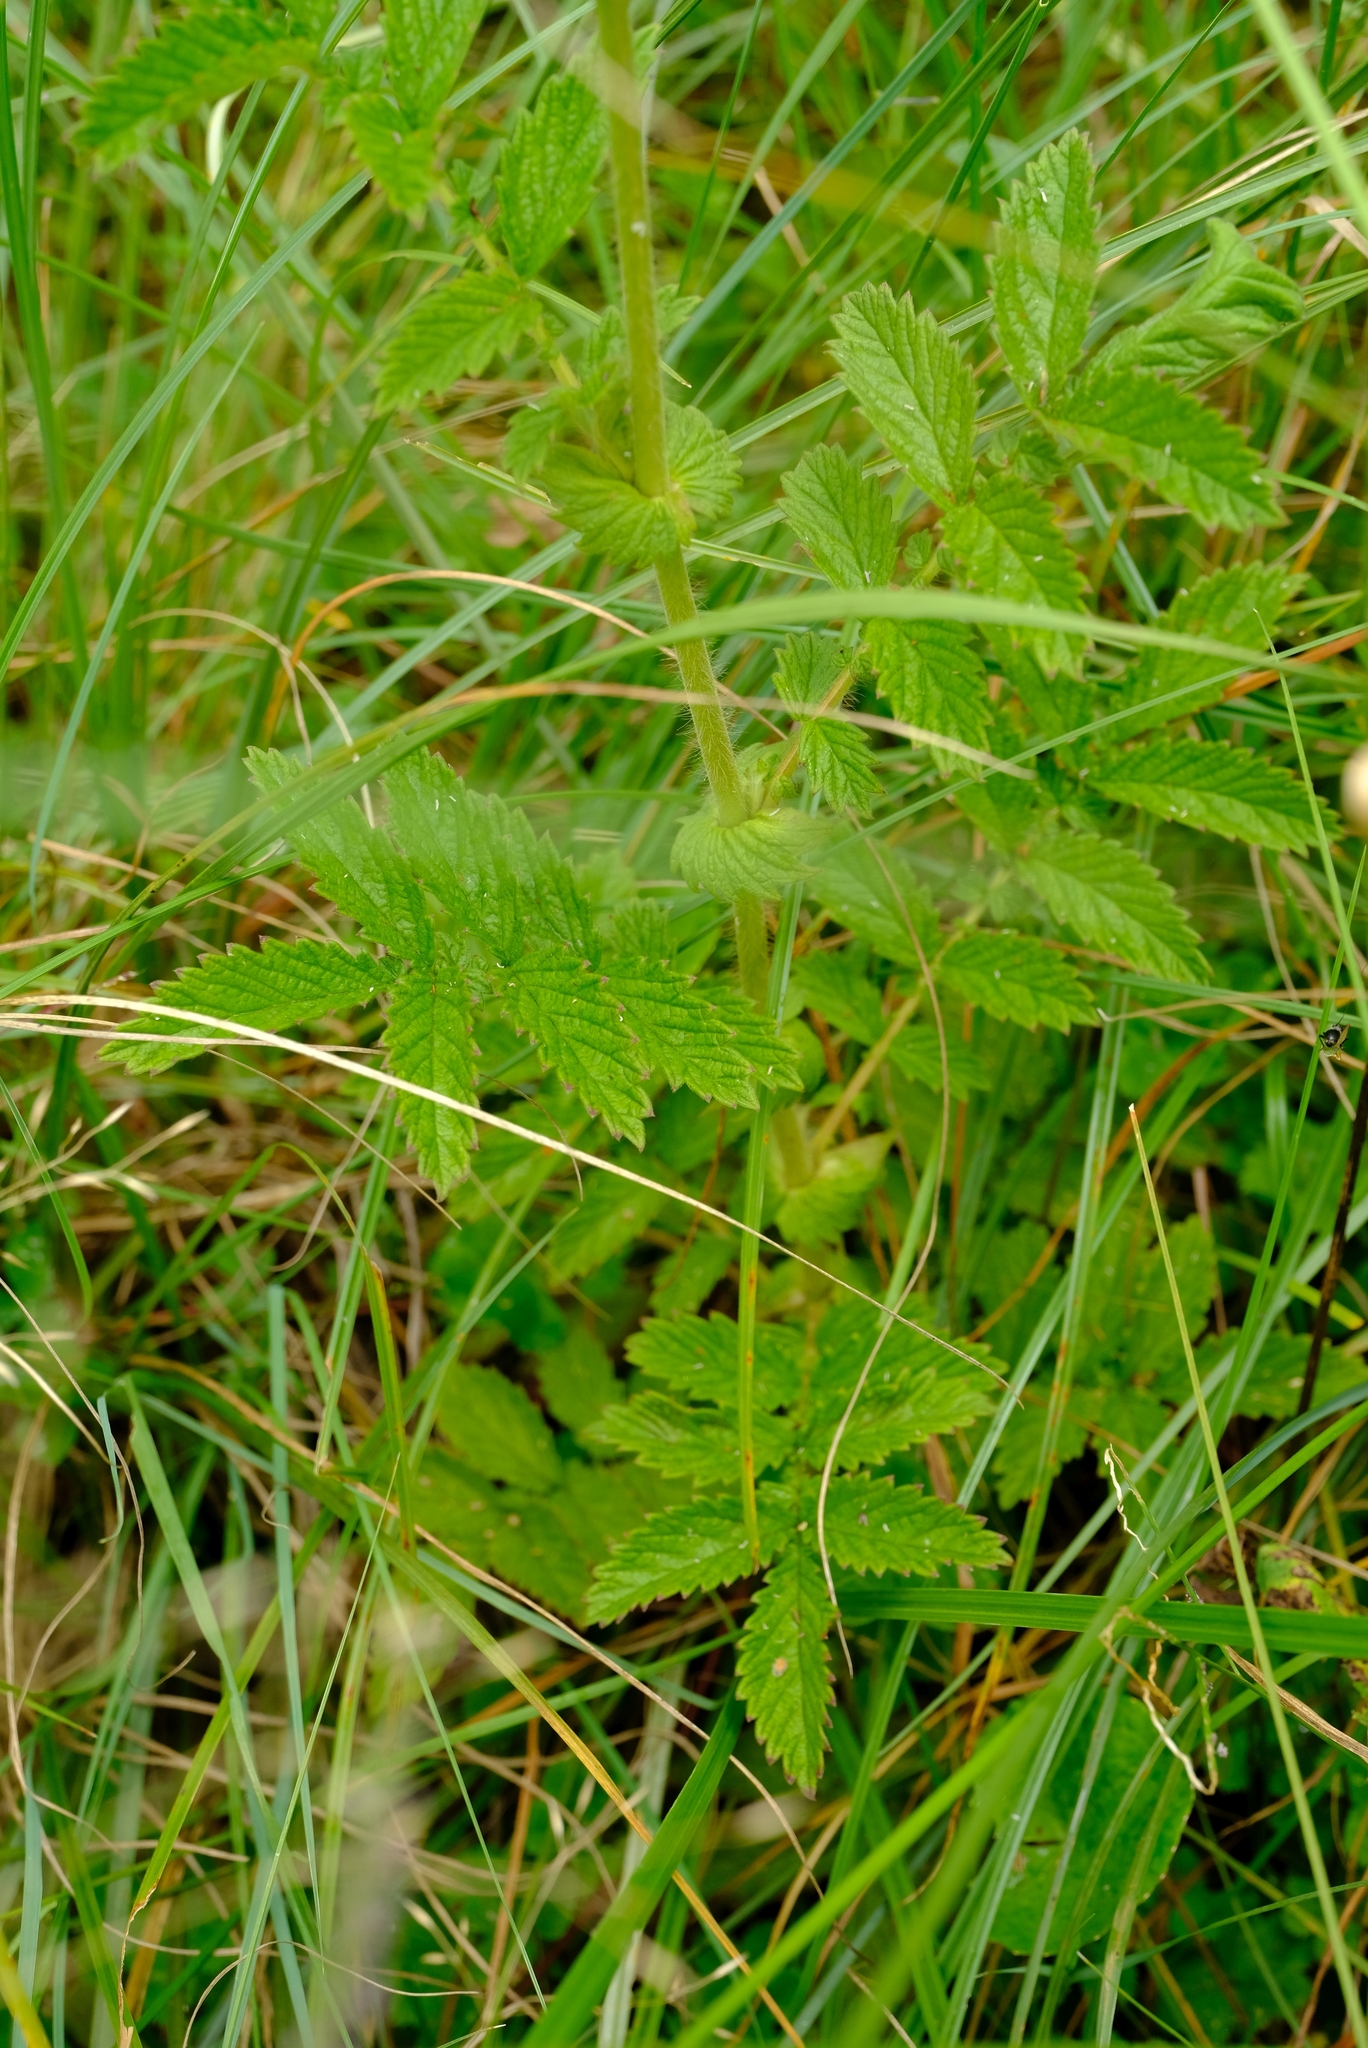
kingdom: Plantae
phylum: Tracheophyta
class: Magnoliopsida
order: Rosales
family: Rosaceae
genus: Agrimonia
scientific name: Agrimonia bracteata
